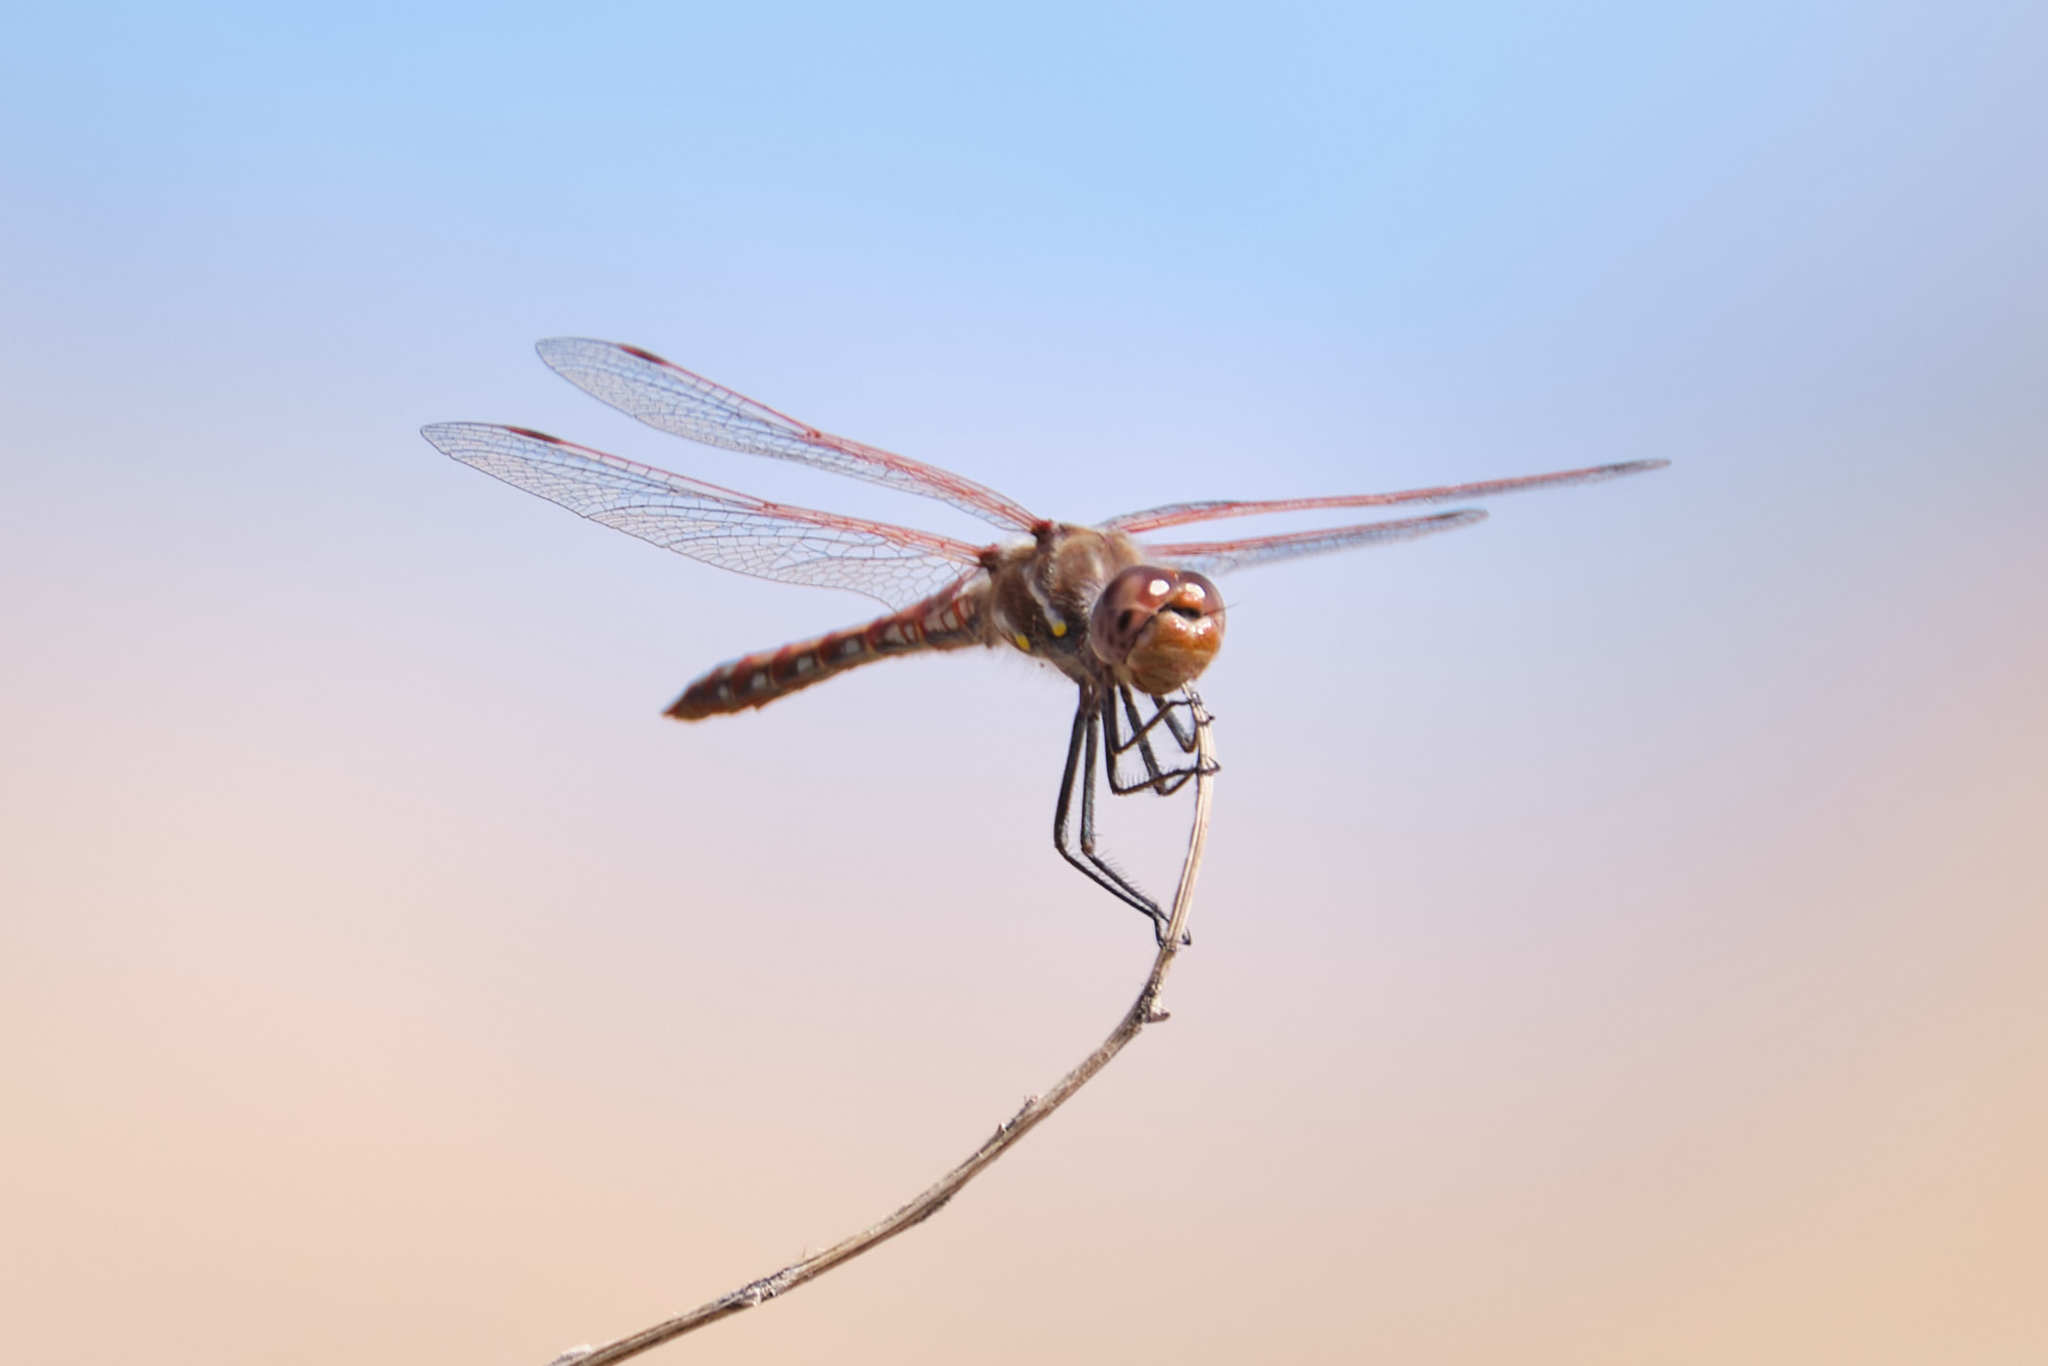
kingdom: Animalia
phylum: Arthropoda
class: Insecta
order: Odonata
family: Libellulidae
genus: Sympetrum
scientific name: Sympetrum corruptum
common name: Variegated meadowhawk
